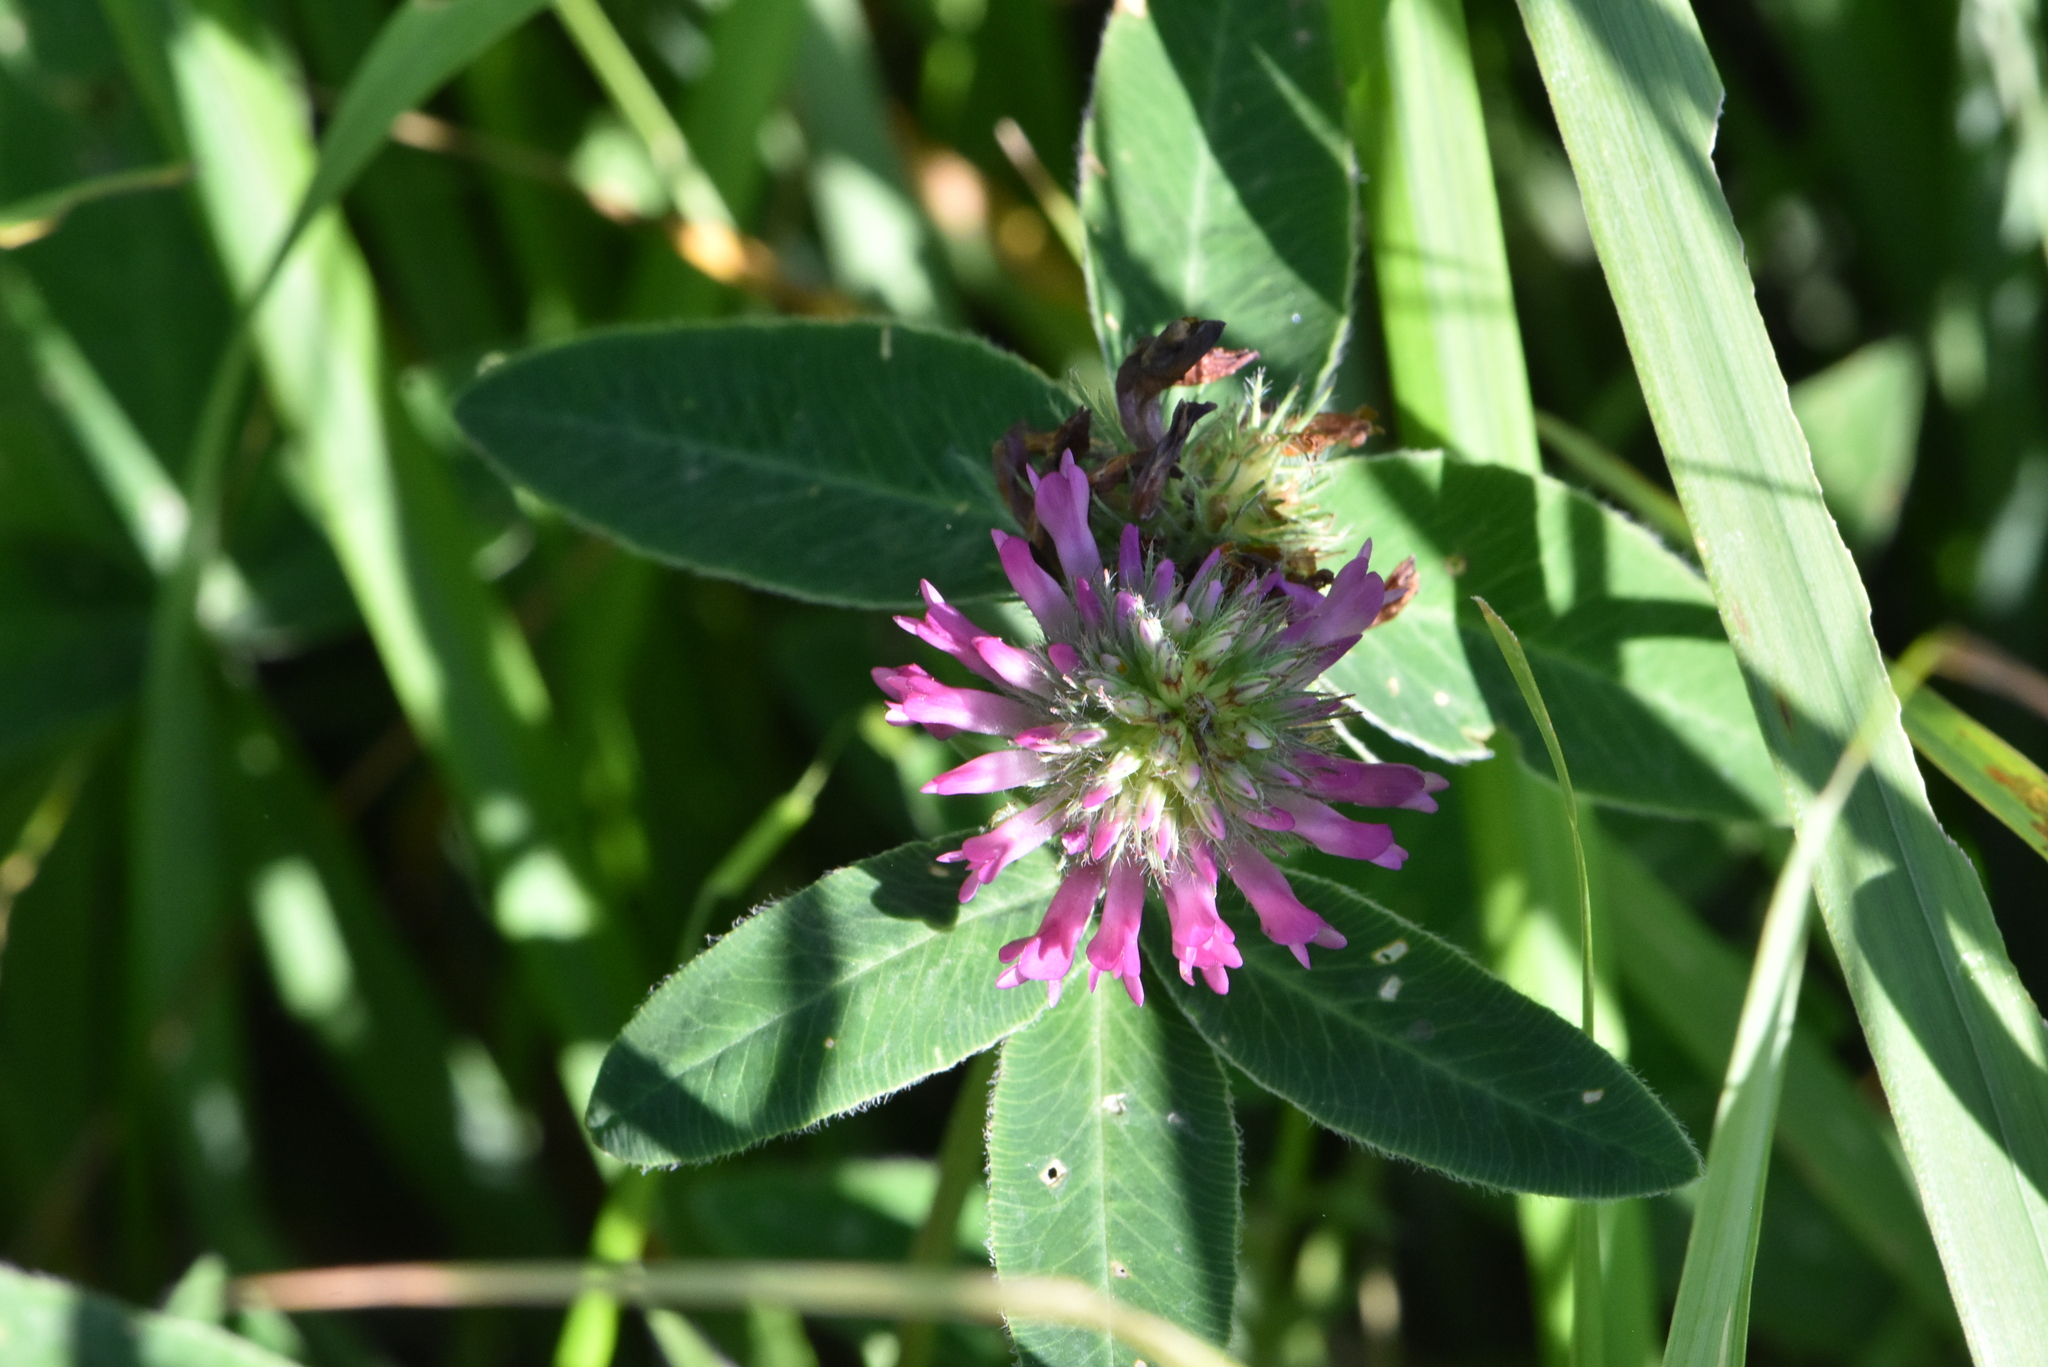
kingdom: Plantae
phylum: Tracheophyta
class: Magnoliopsida
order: Fabales
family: Fabaceae
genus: Trifolium
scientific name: Trifolium medium
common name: Zigzag clover
